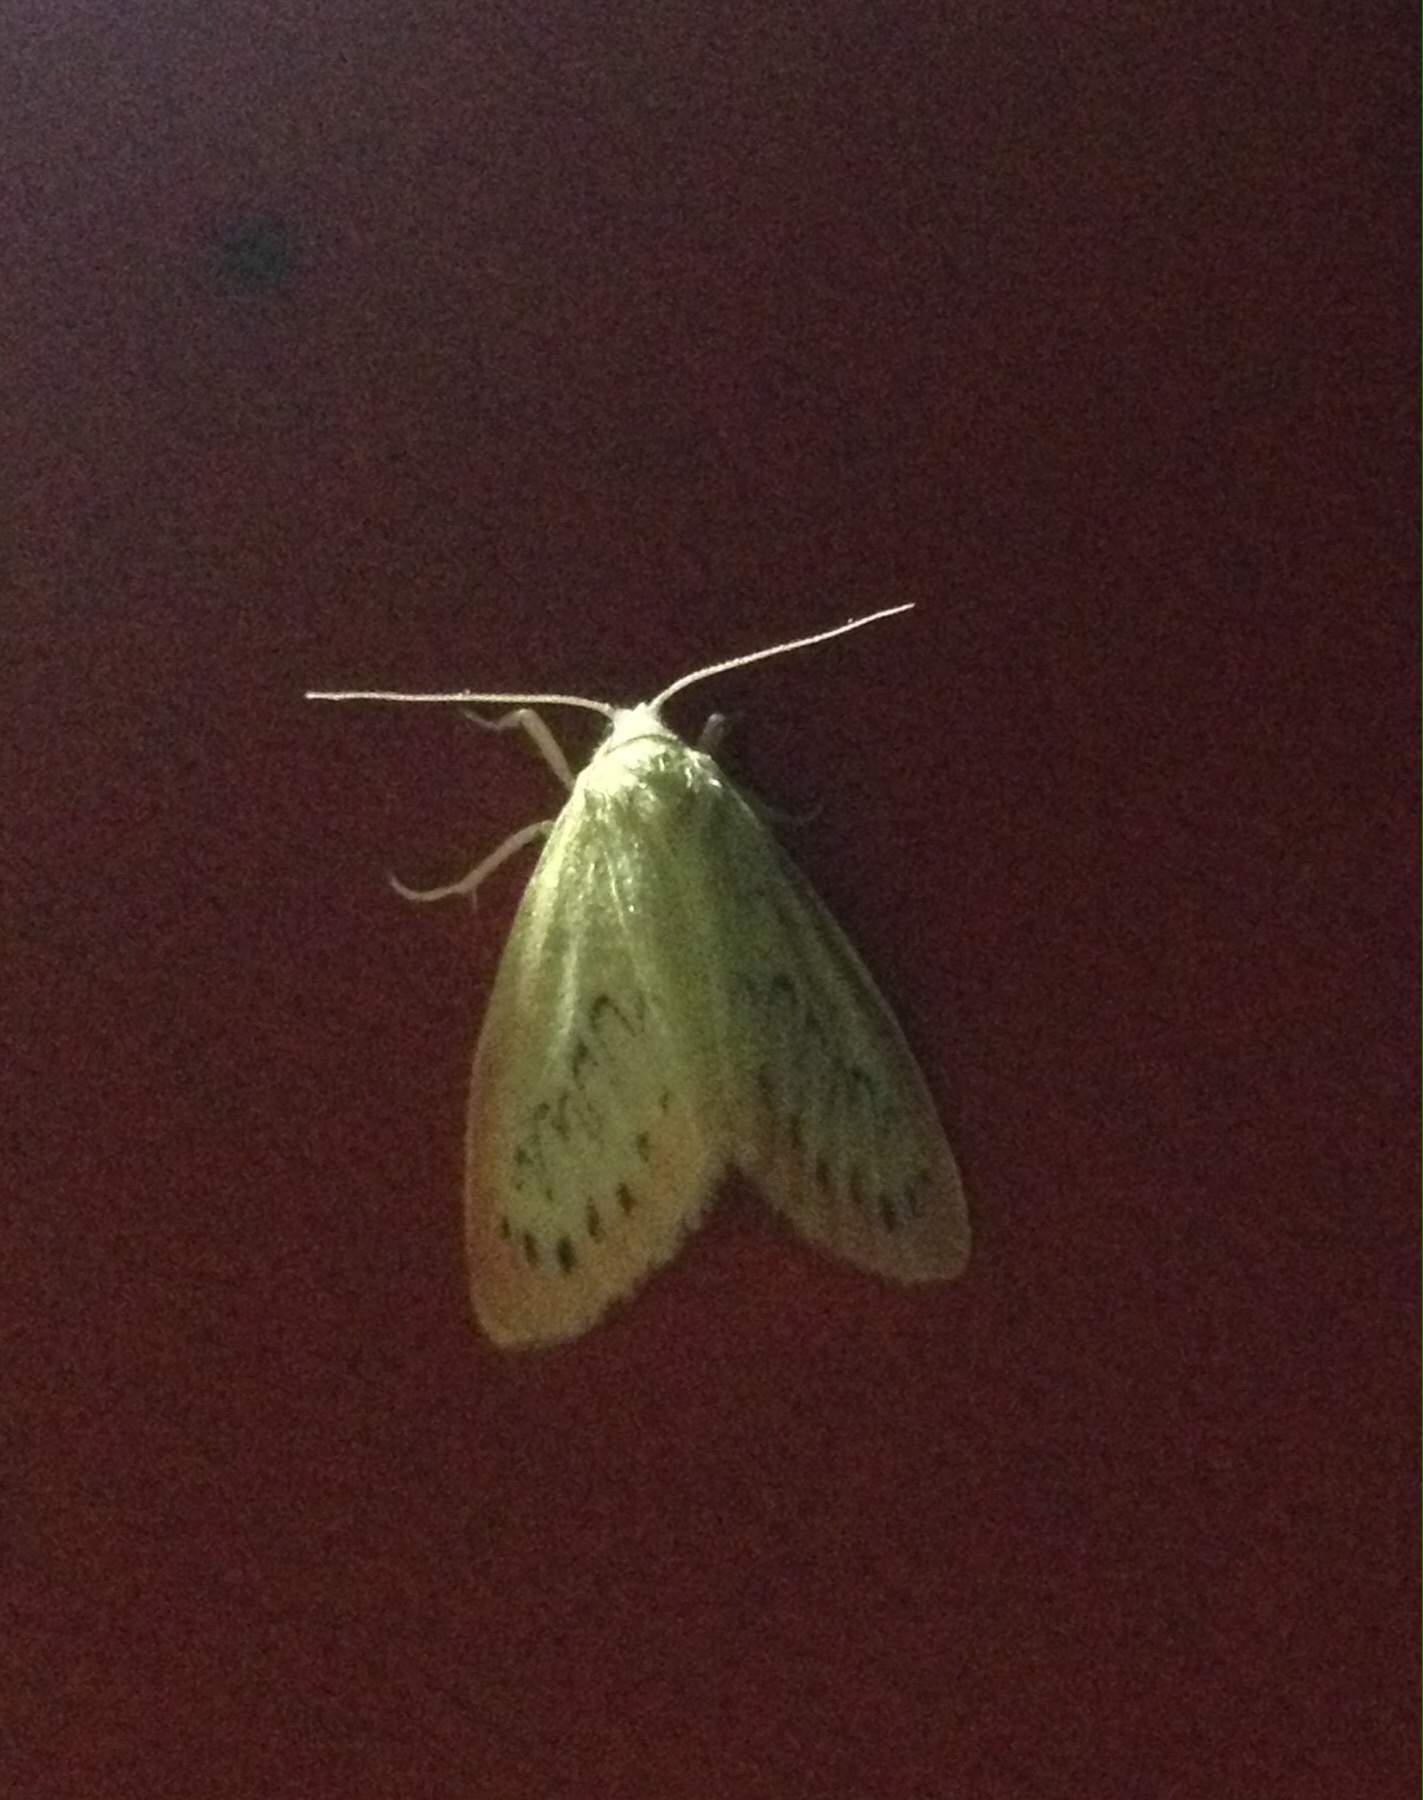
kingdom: Animalia
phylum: Arthropoda
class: Insecta
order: Lepidoptera
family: Erebidae
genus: Miltochrista
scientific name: Miltochrista miniata
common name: Rosy footman
